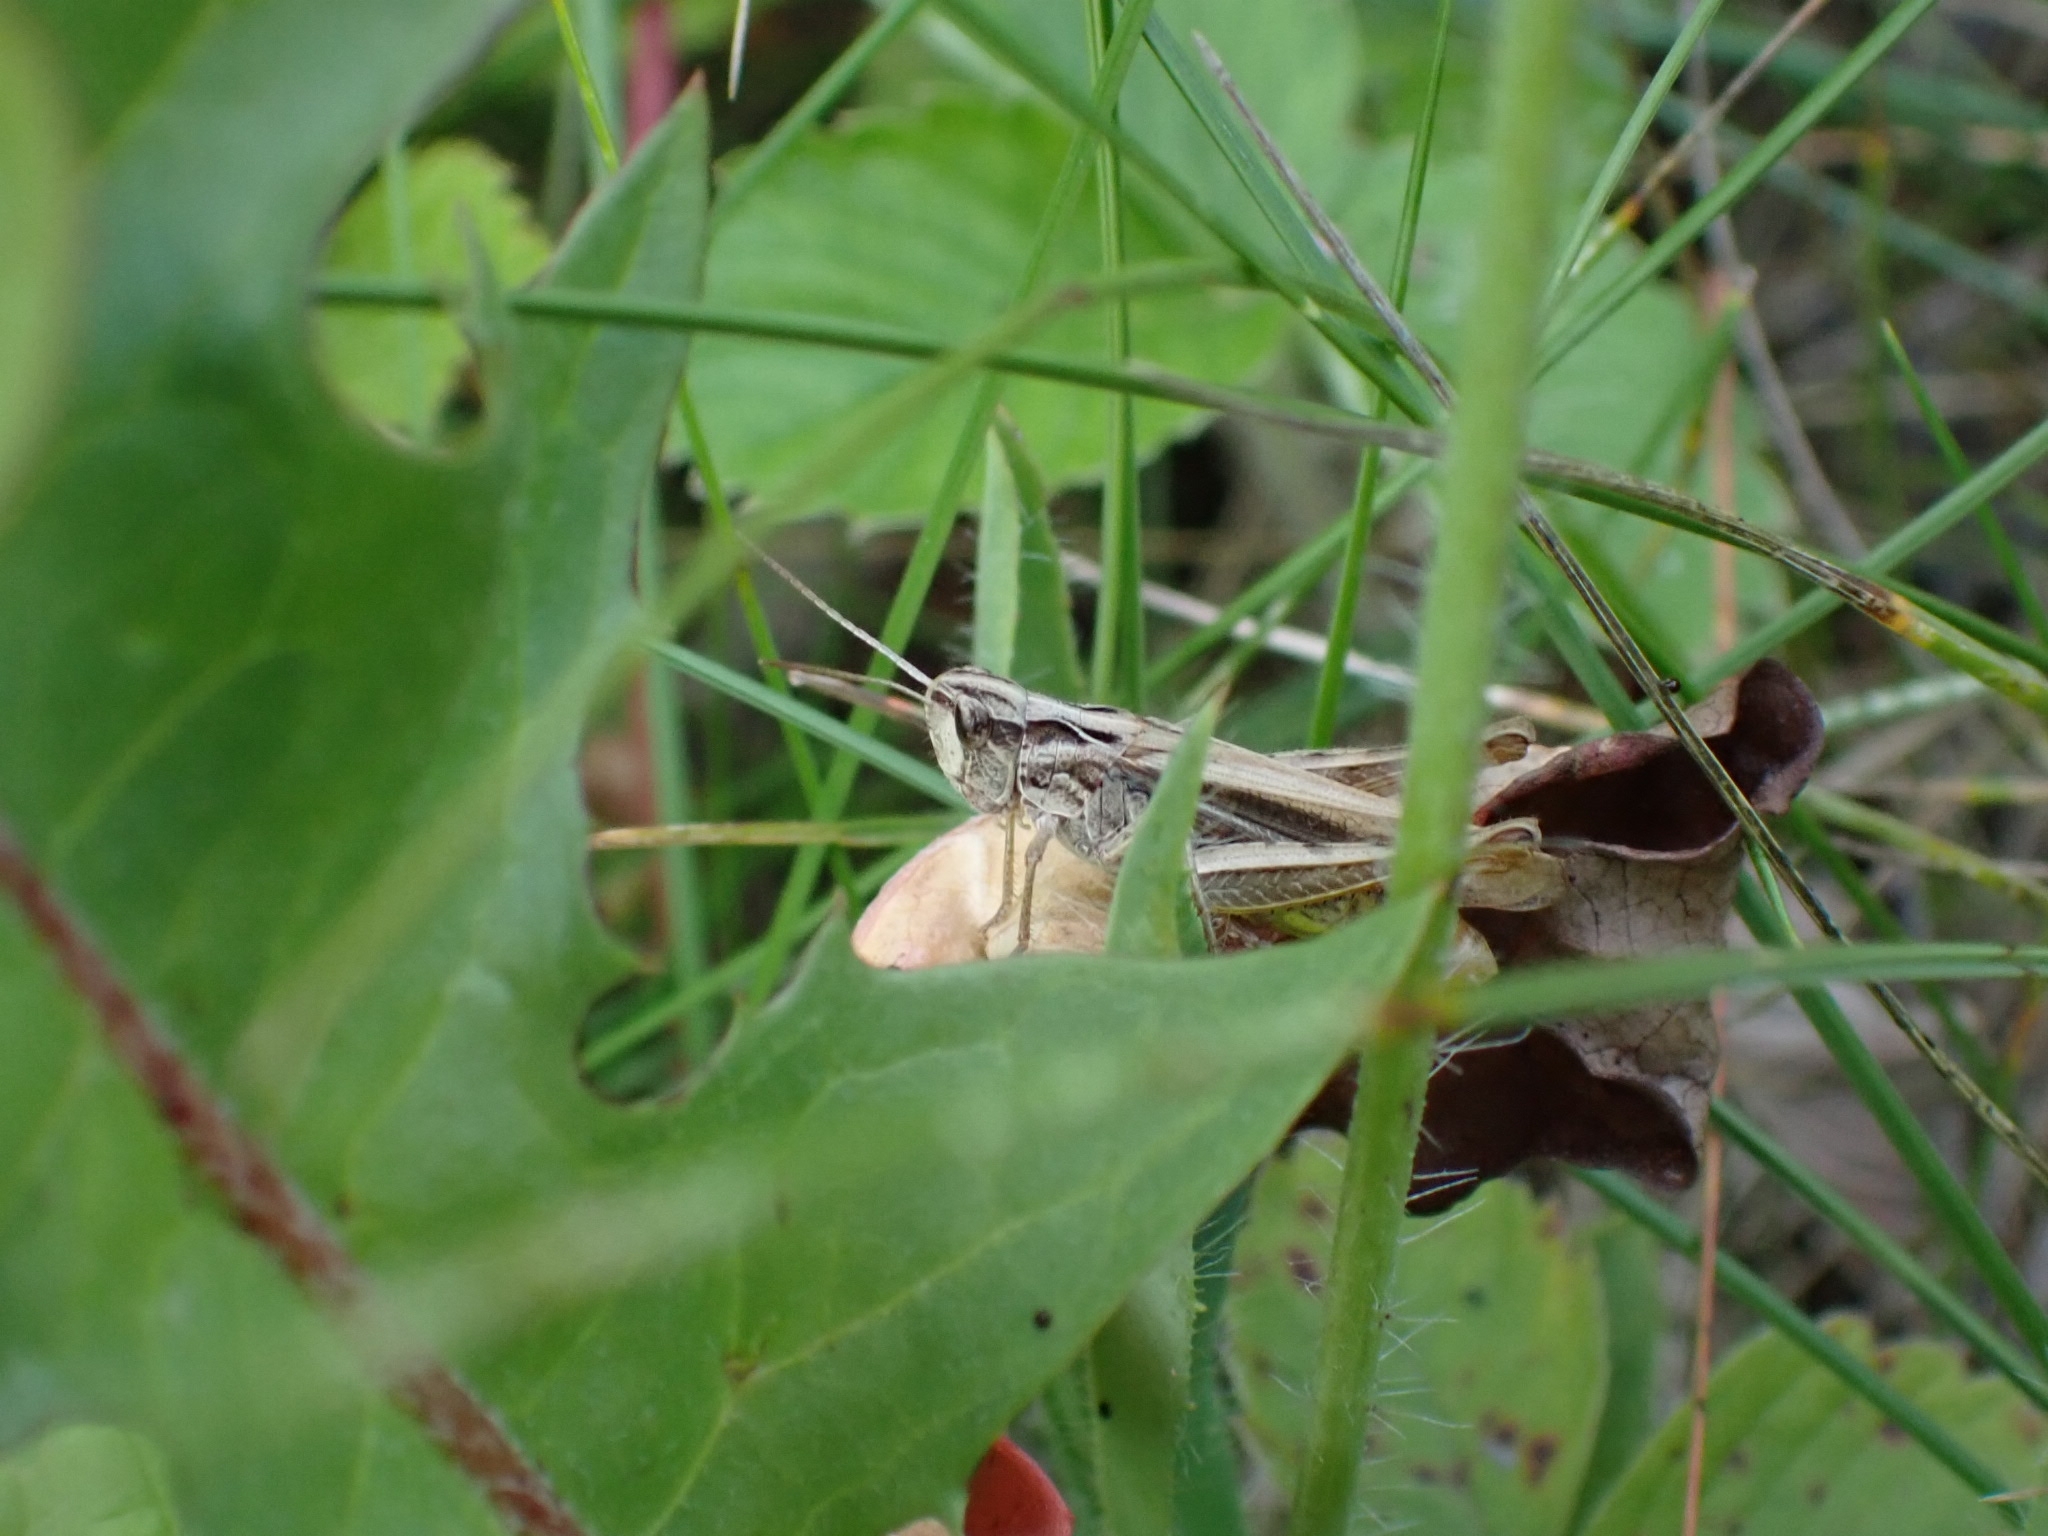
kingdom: Animalia
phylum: Arthropoda
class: Insecta
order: Orthoptera
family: Acrididae
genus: Chorthippus
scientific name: Chorthippus apricarius
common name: Upland field grasshopper
